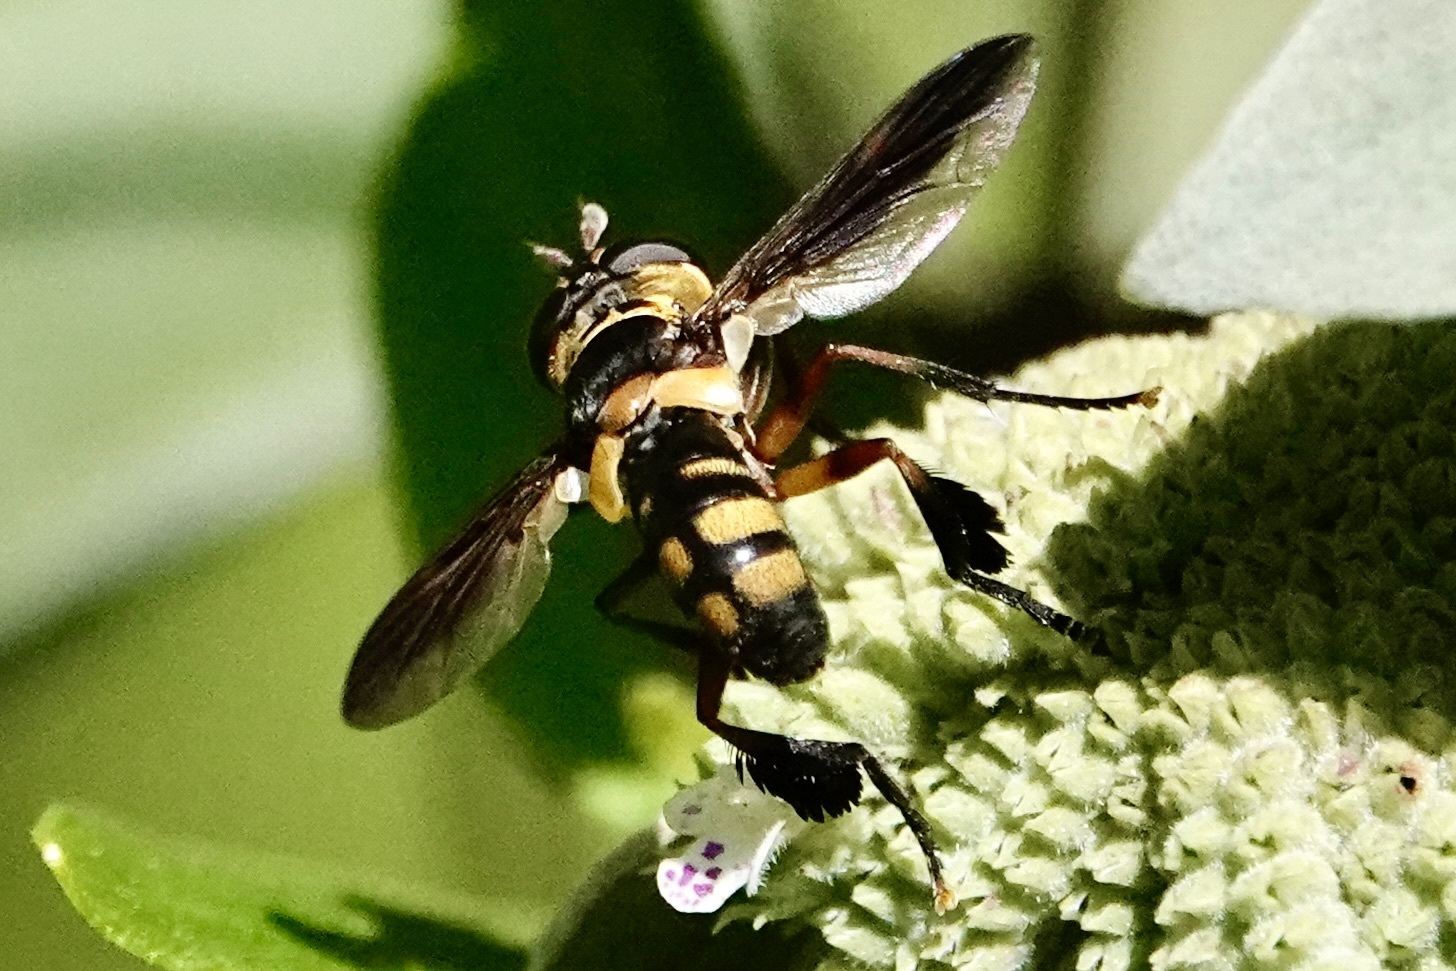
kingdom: Animalia
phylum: Arthropoda
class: Insecta
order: Diptera
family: Tachinidae
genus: Trichopoda
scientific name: Trichopoda plumipes
